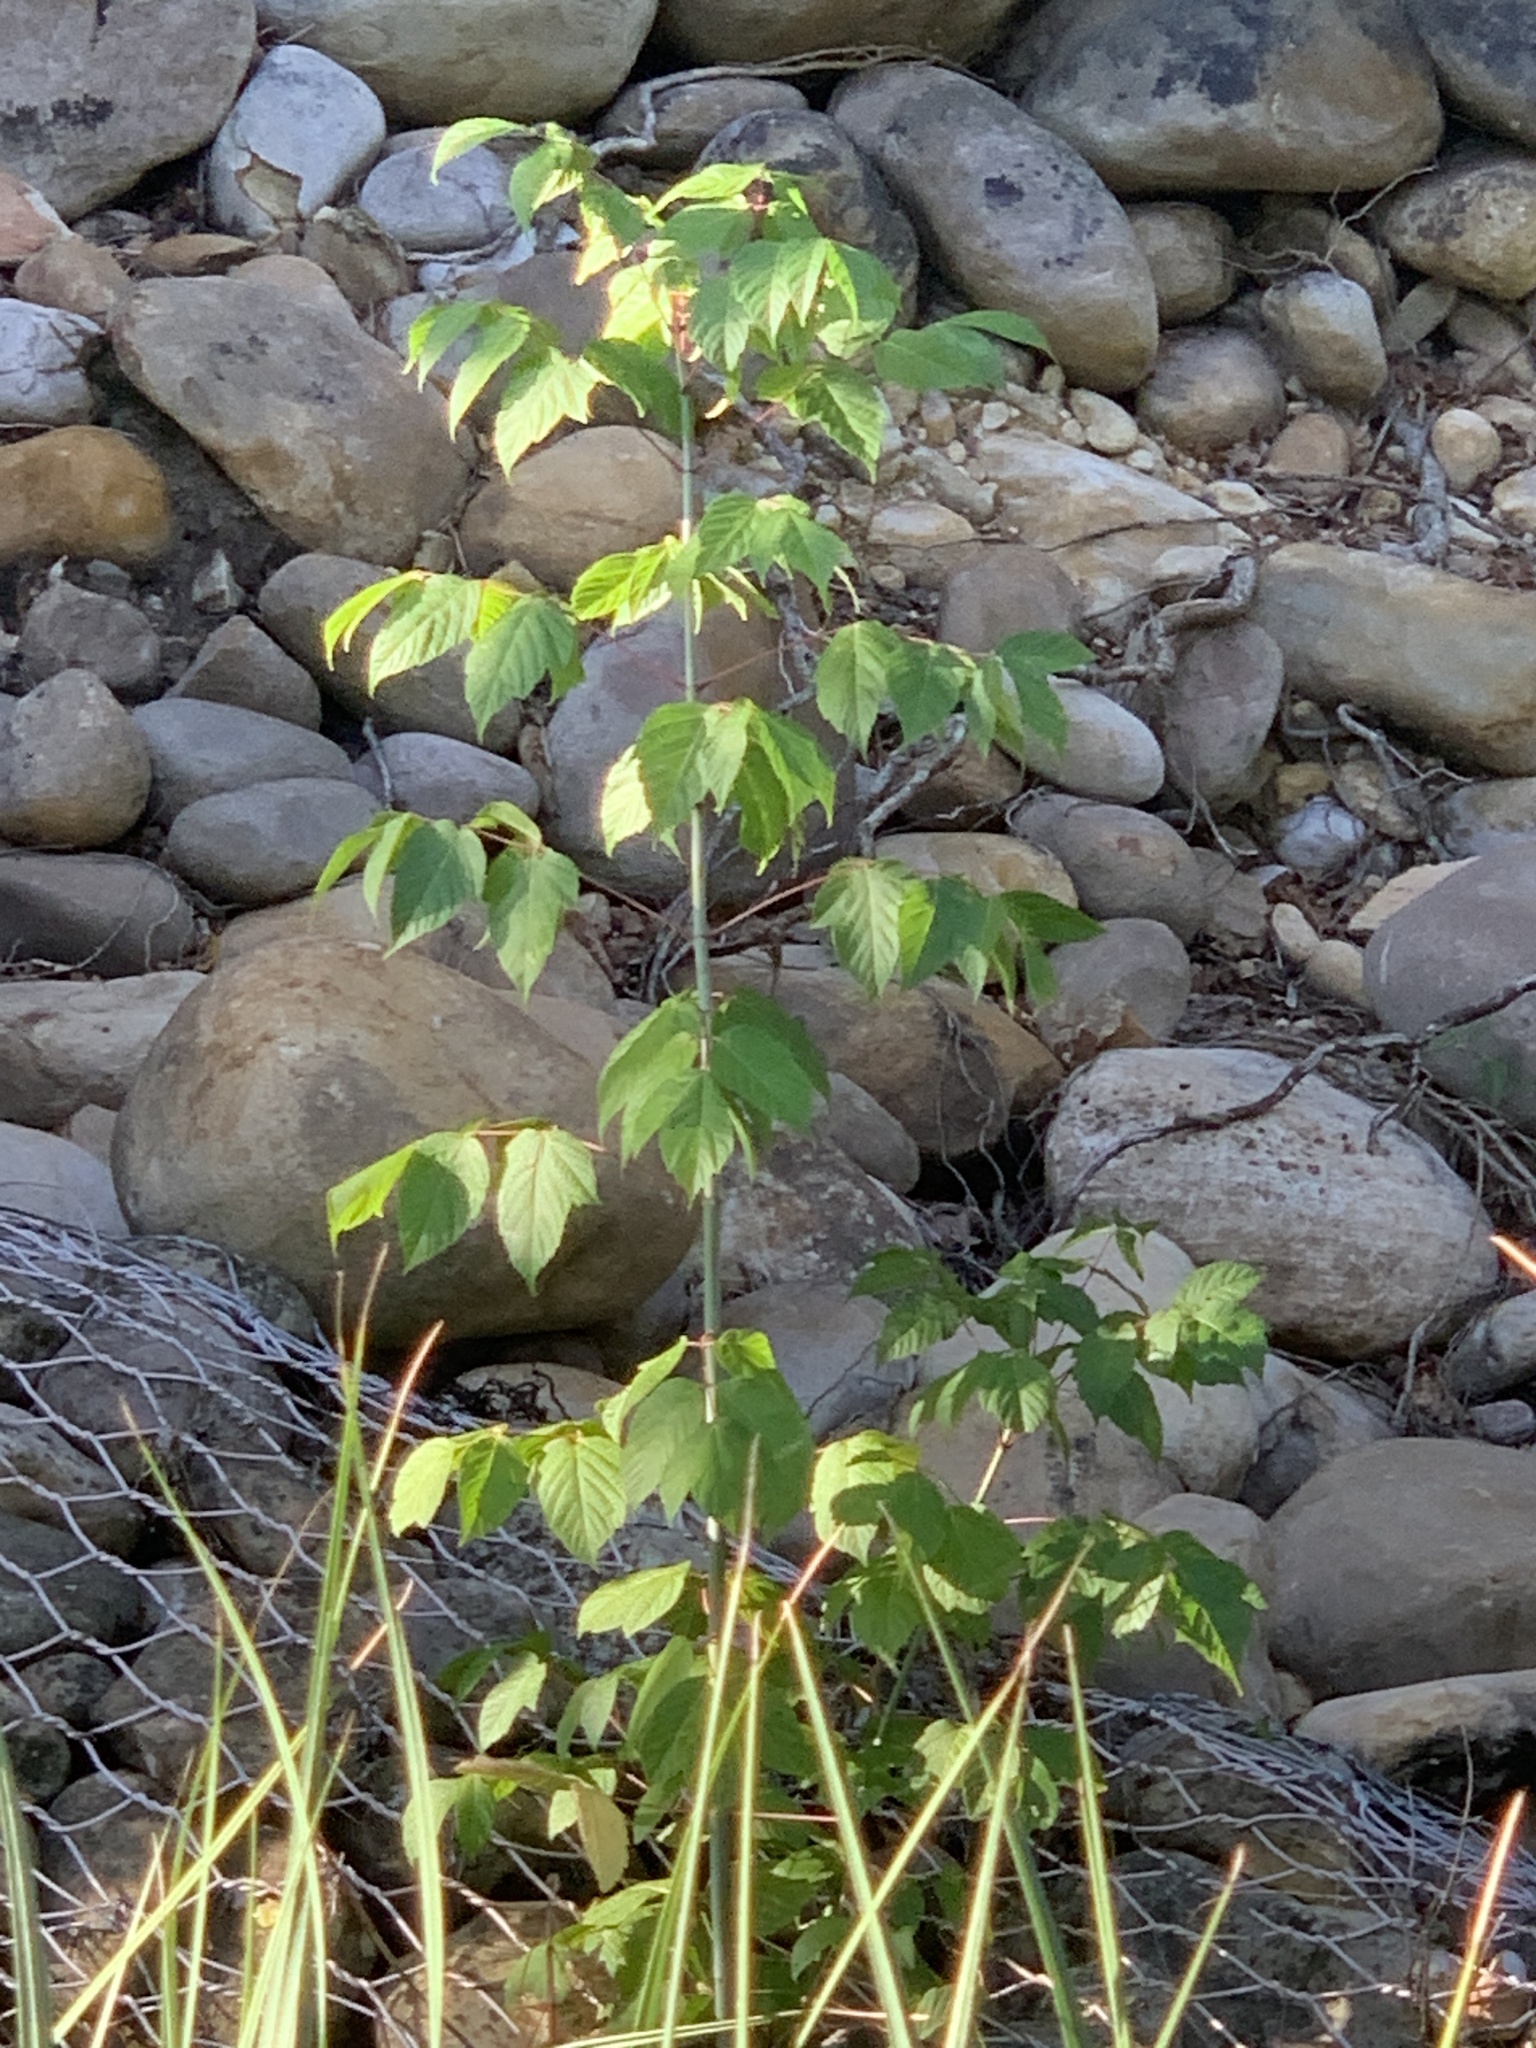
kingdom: Plantae
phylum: Tracheophyta
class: Magnoliopsida
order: Sapindales
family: Sapindaceae
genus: Acer
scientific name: Acer negundo
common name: Ashleaf maple
